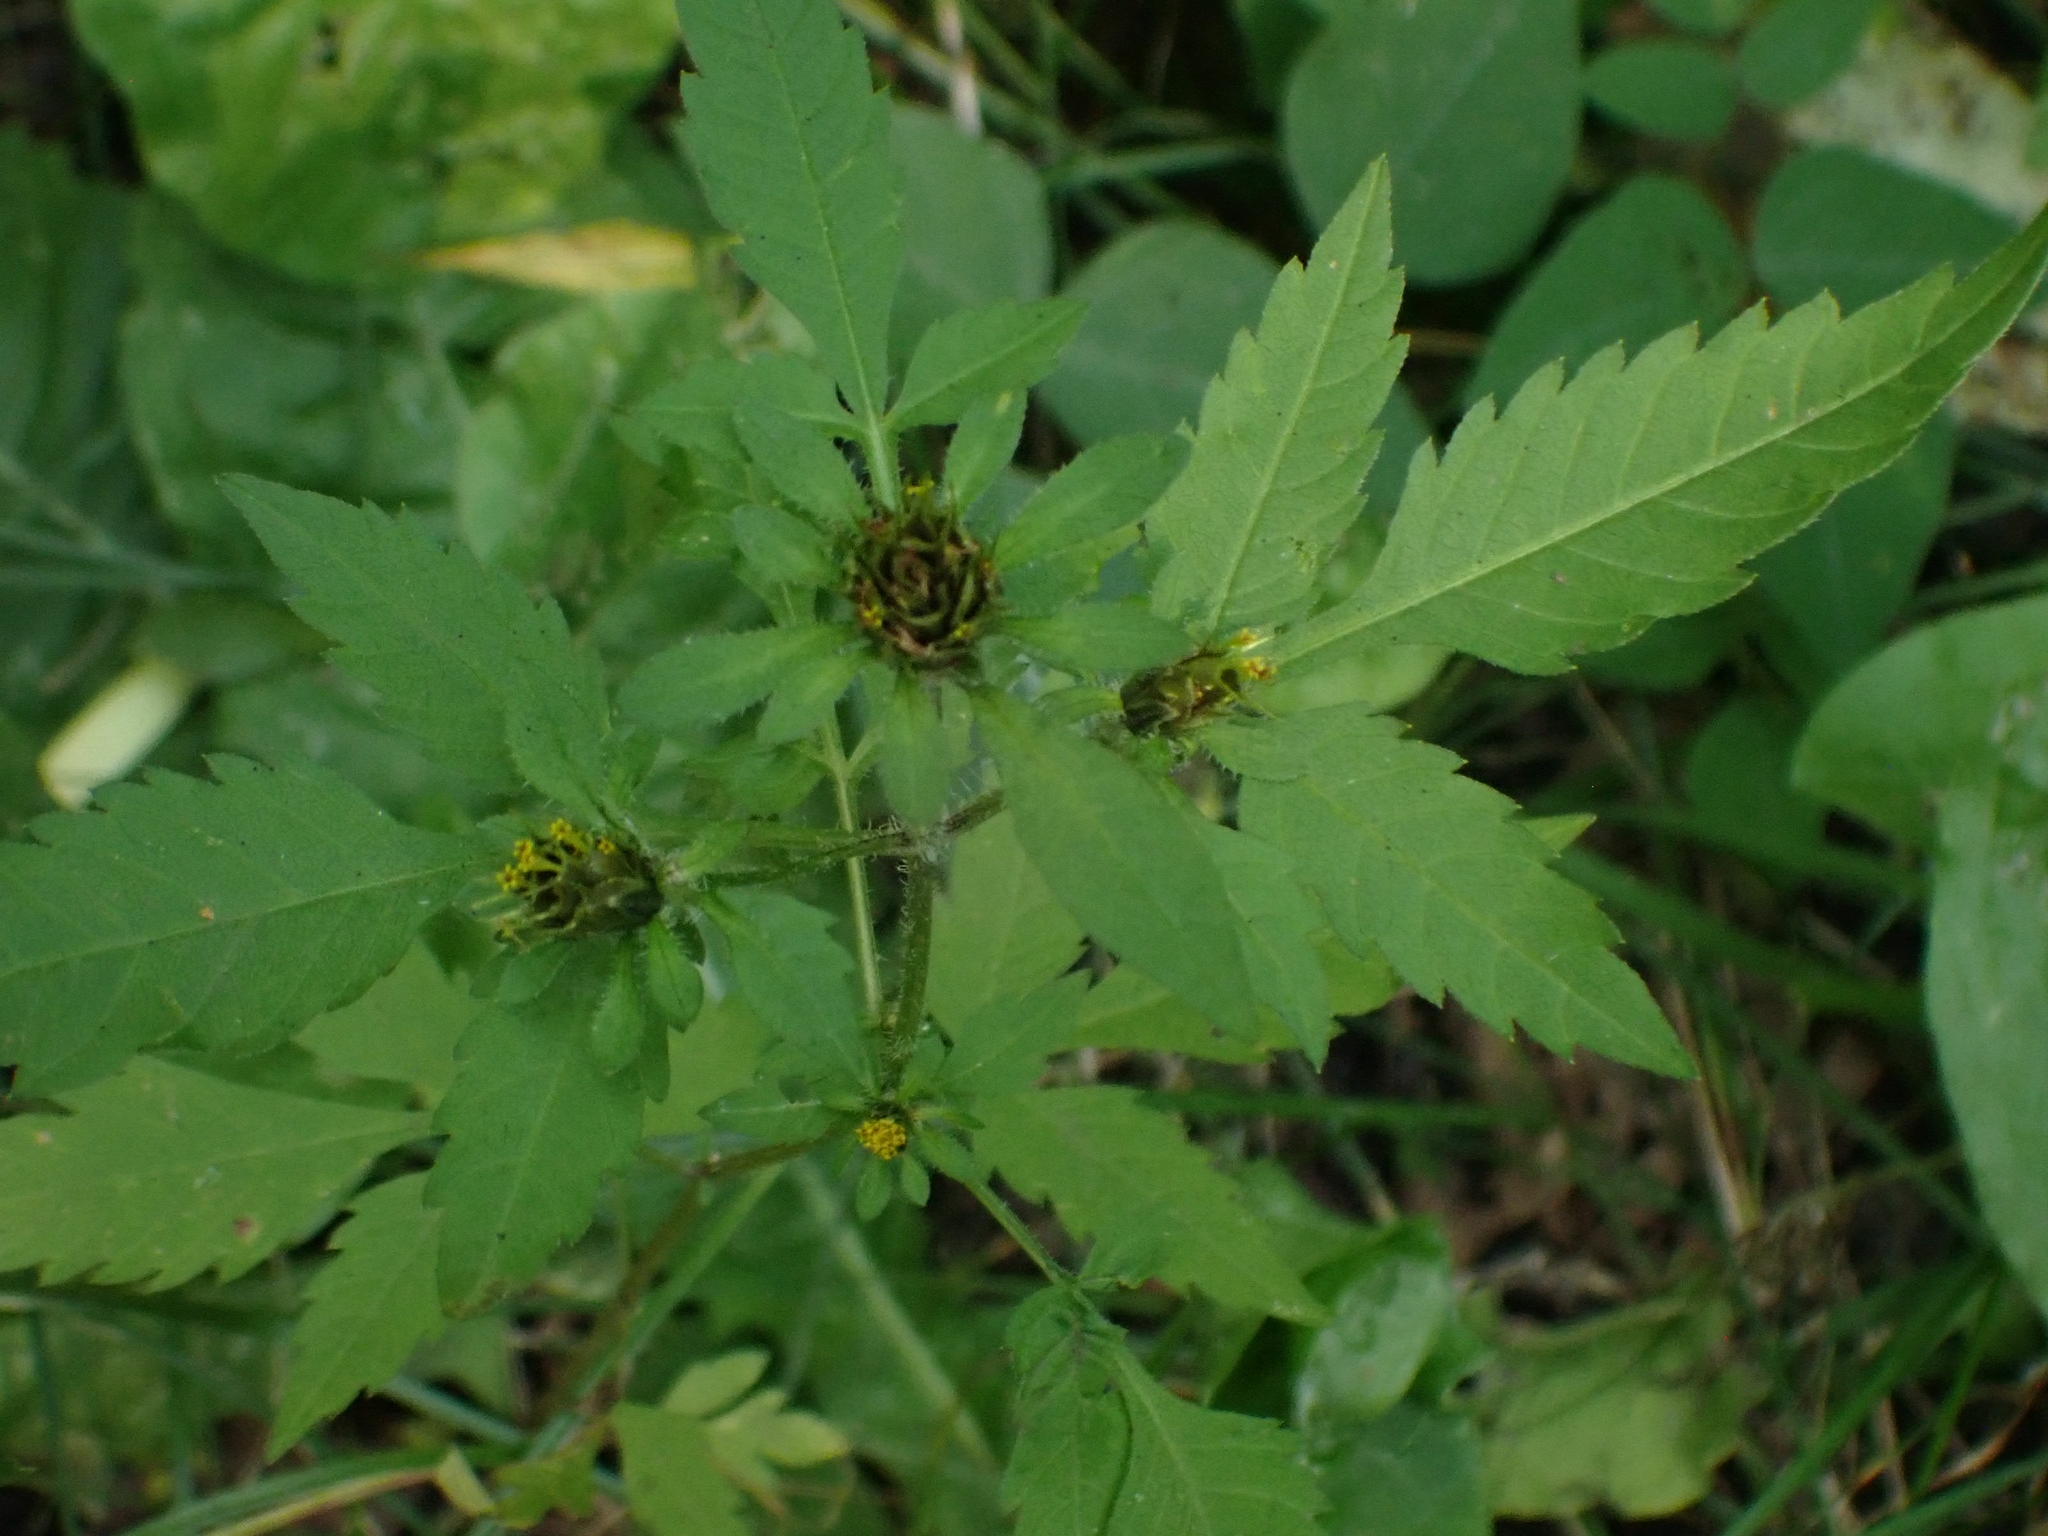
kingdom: Plantae
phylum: Tracheophyta
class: Magnoliopsida
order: Asterales
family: Asteraceae
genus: Bidens
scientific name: Bidens frondosa
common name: Beggarticks
